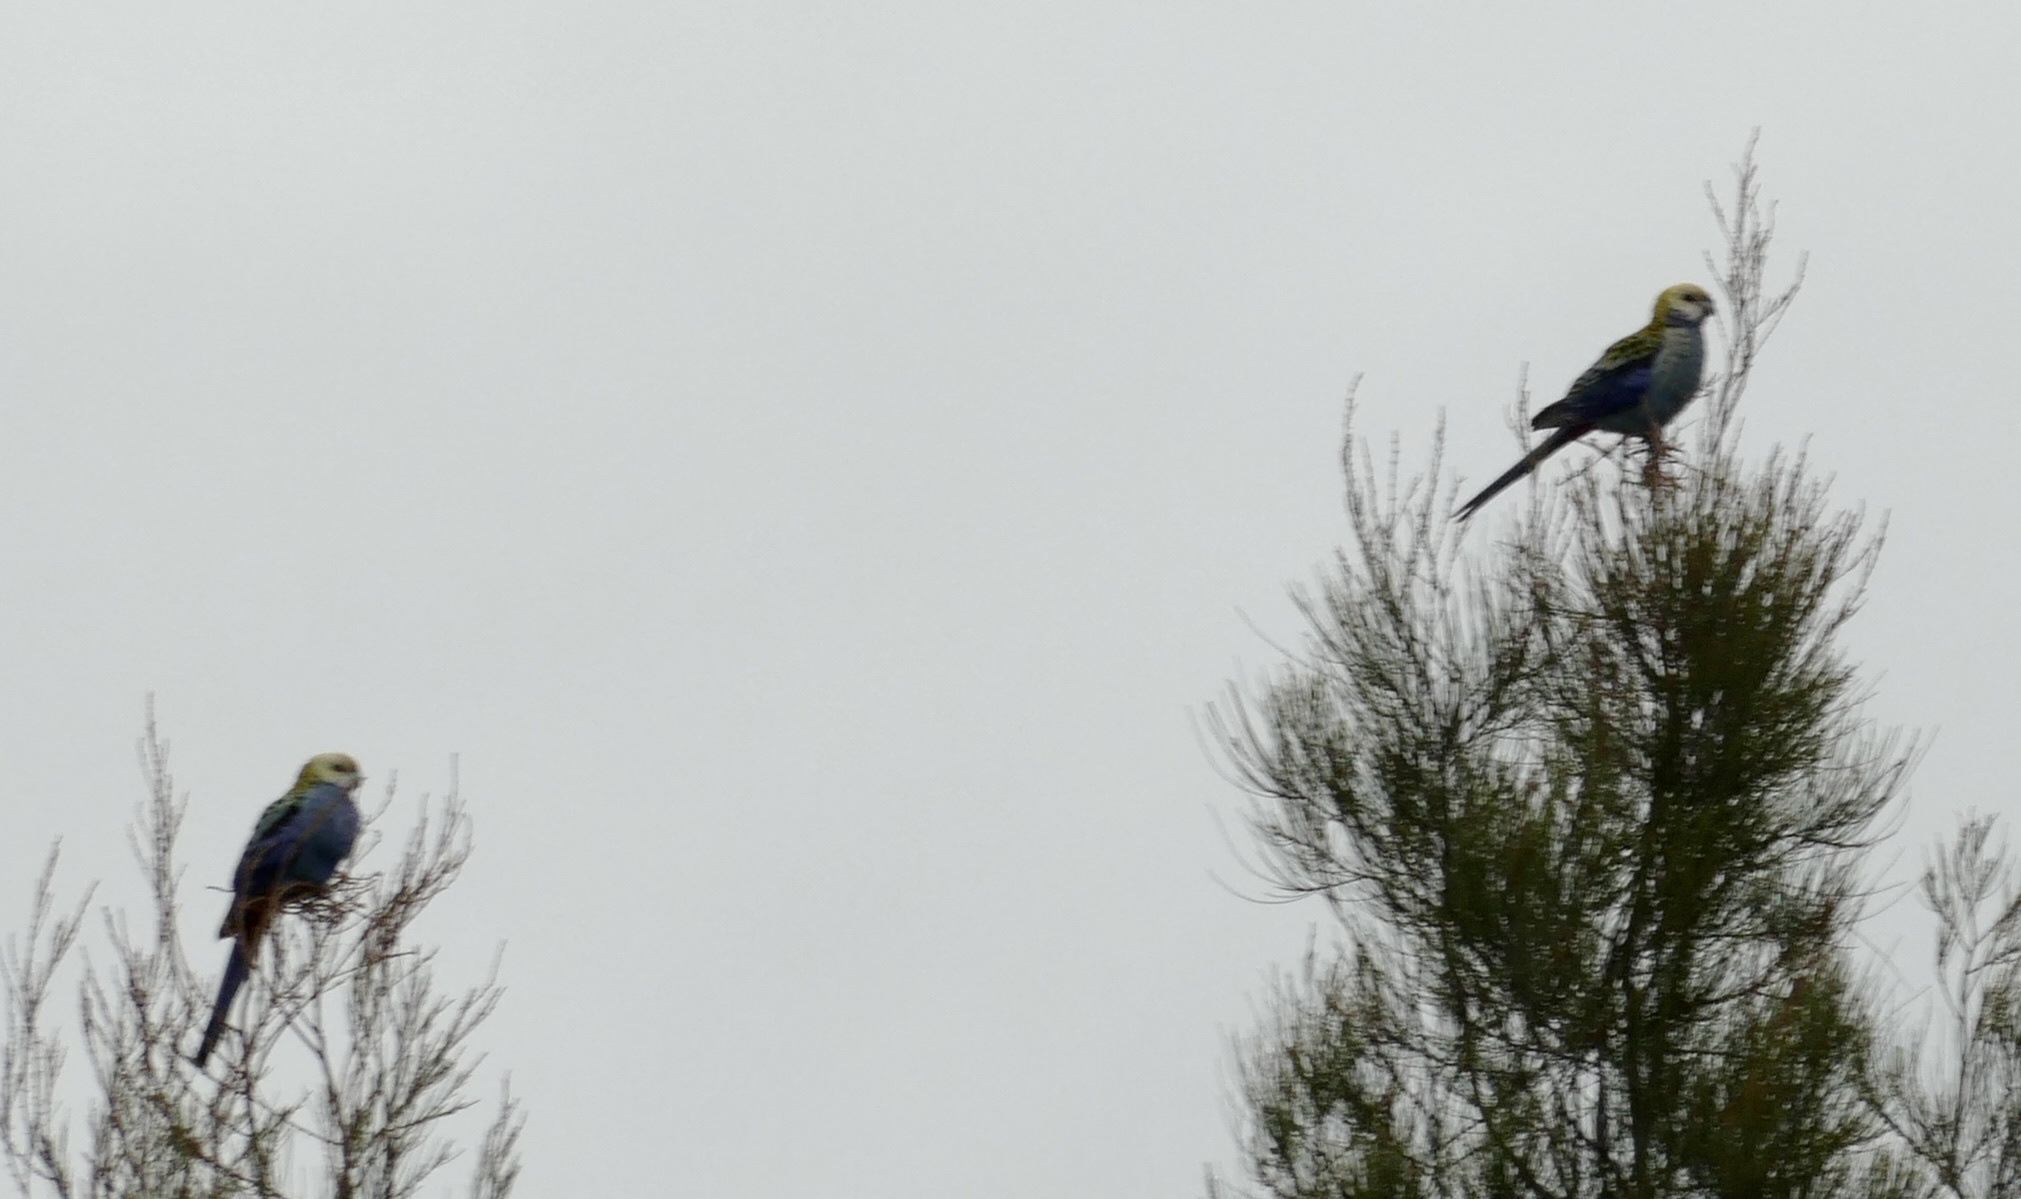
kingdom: Animalia
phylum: Chordata
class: Aves
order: Psittaciformes
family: Psittacidae
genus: Platycercus
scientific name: Platycercus adscitus
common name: Pale-headed rosella
